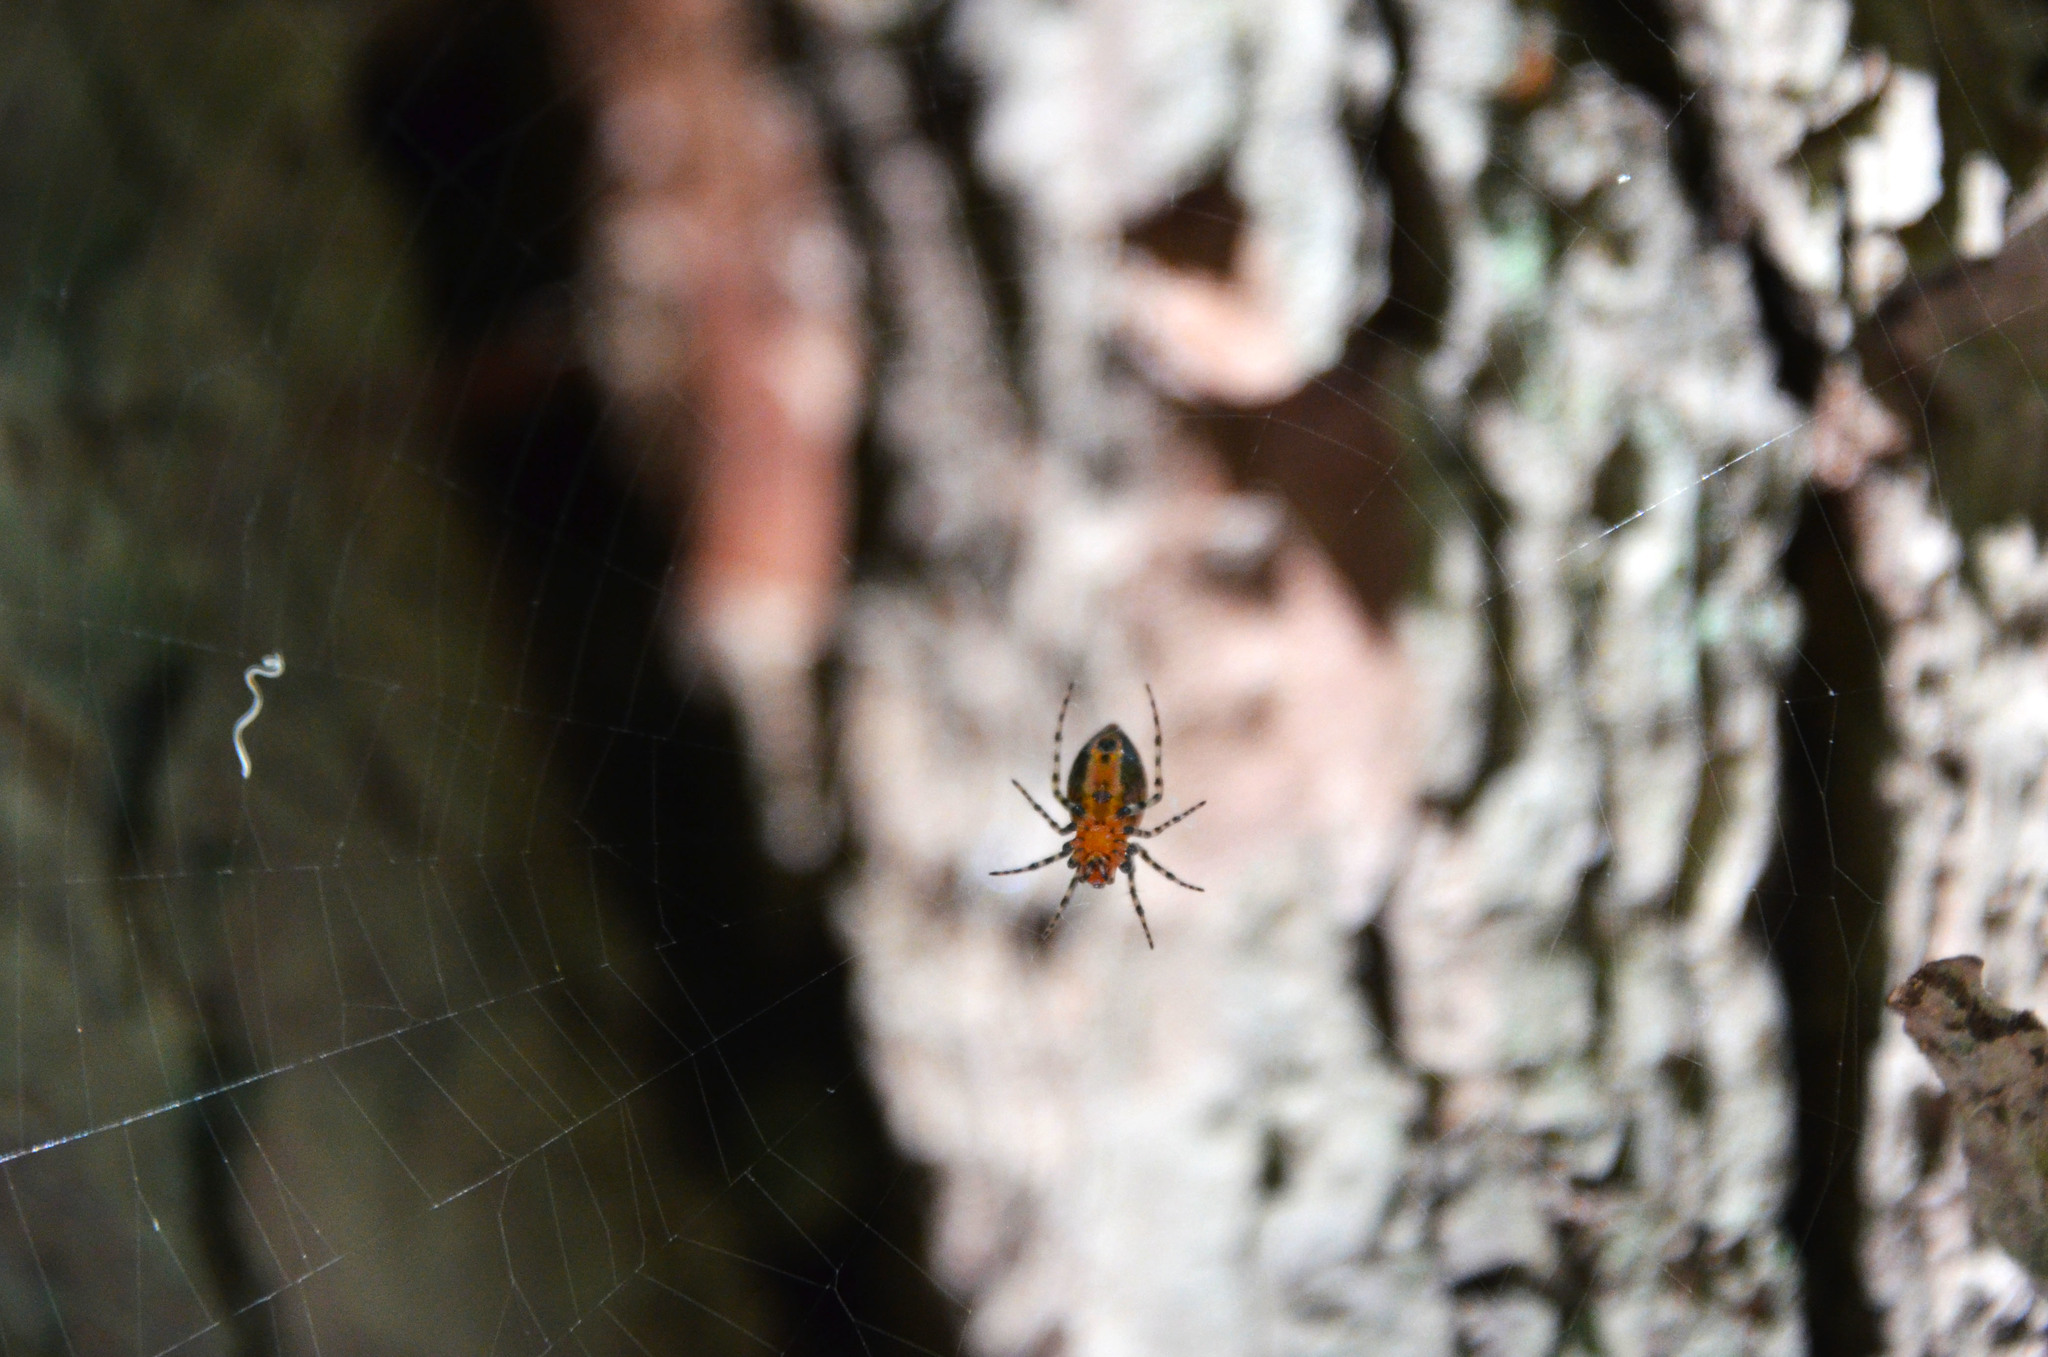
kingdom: Animalia
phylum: Arthropoda
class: Arachnida
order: Araneae
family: Araneidae
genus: Alpaida
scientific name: Alpaida gallardoi
